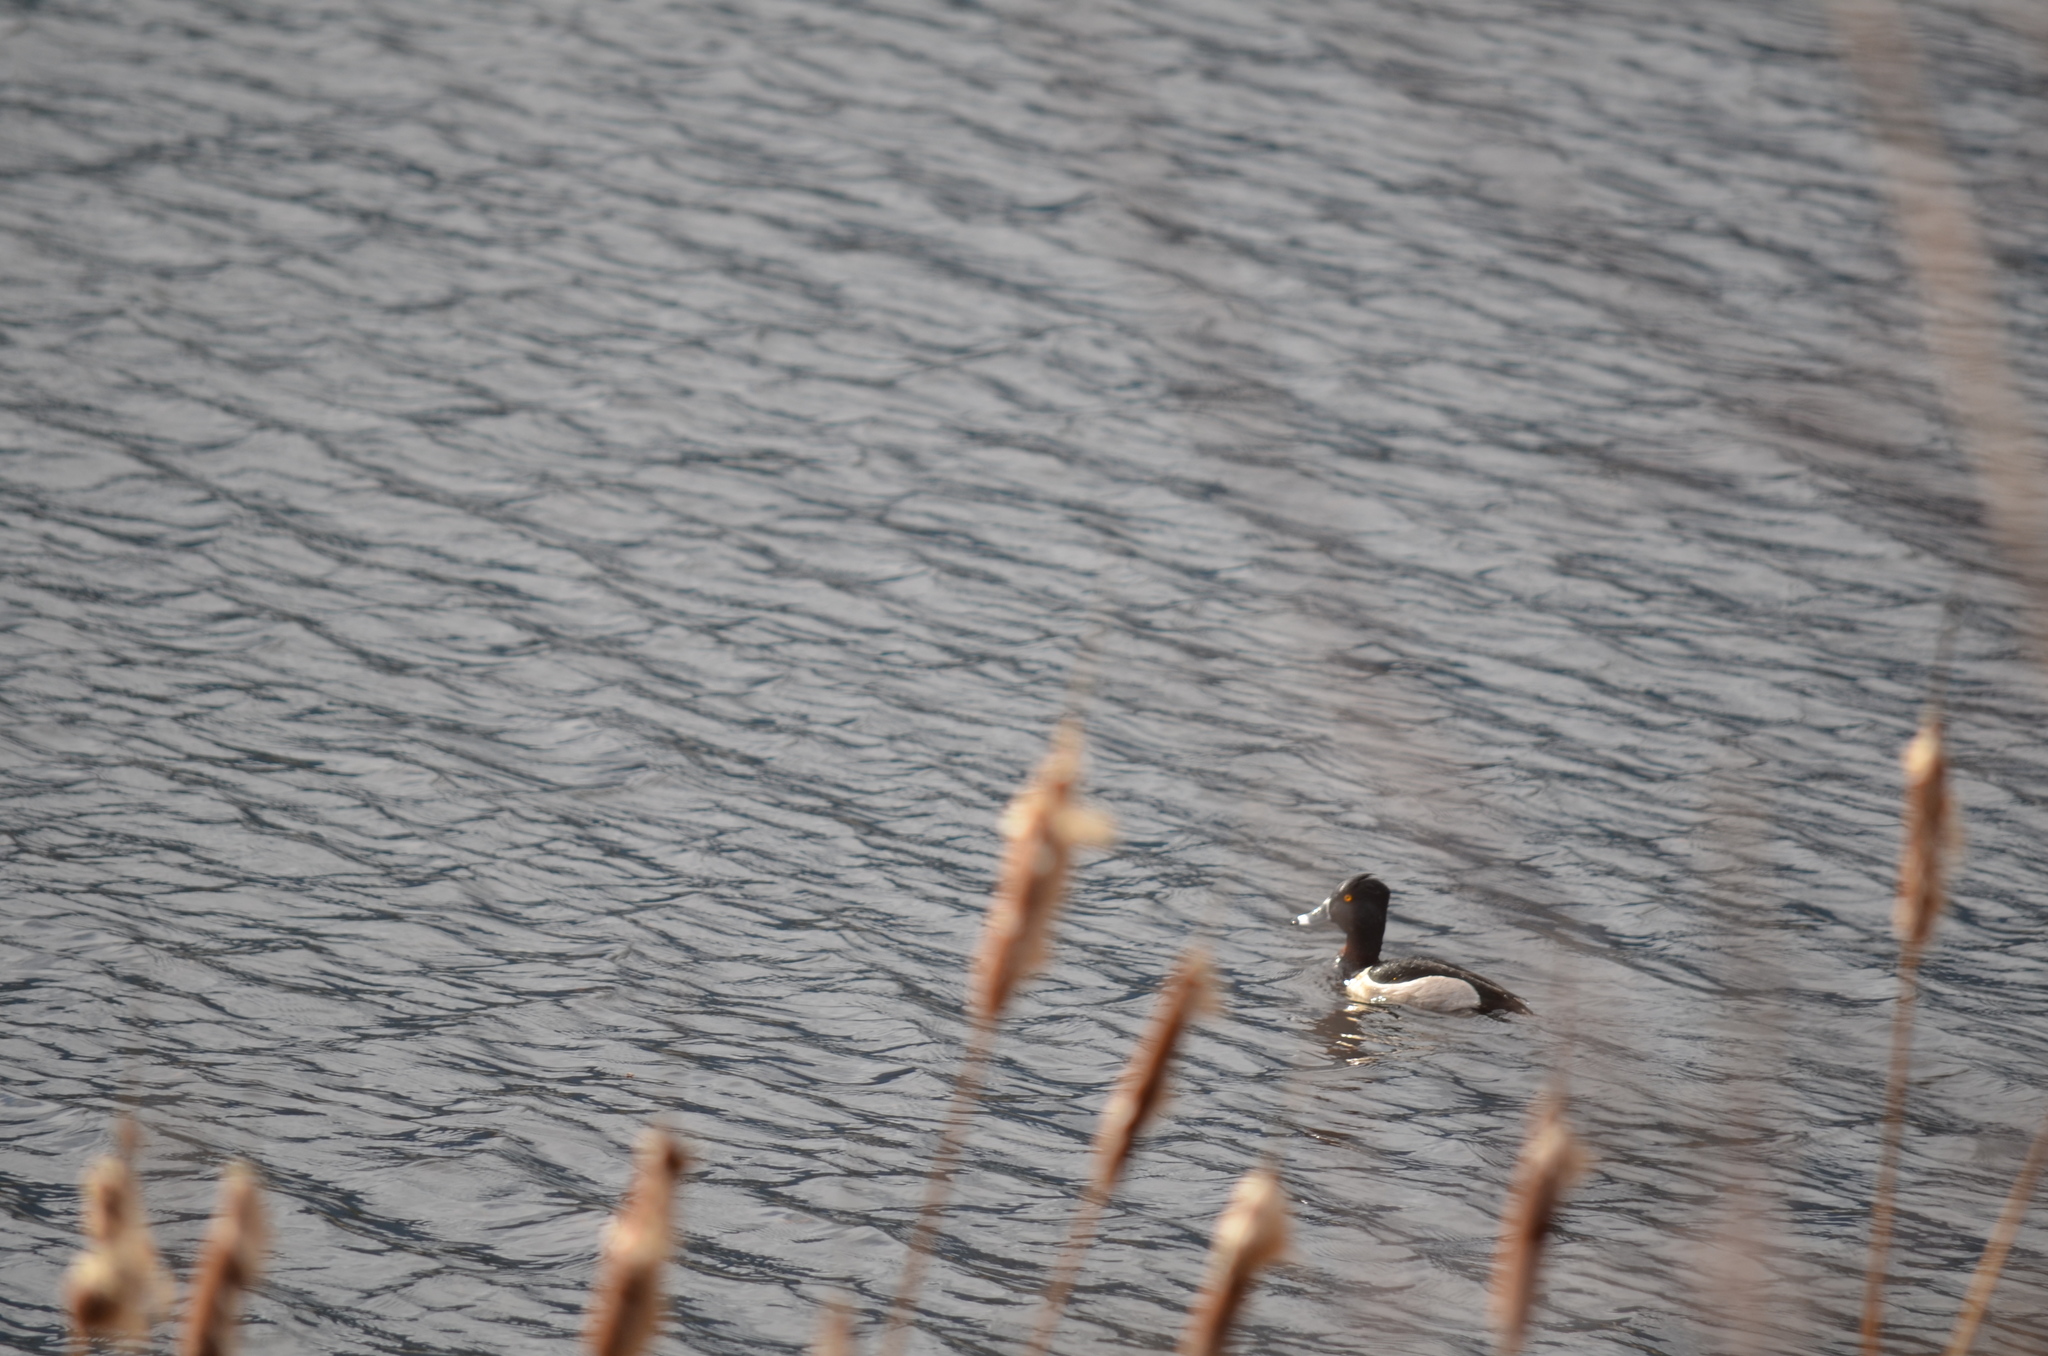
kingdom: Animalia
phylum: Chordata
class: Aves
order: Anseriformes
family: Anatidae
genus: Aythya
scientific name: Aythya collaris
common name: Ring-necked duck
